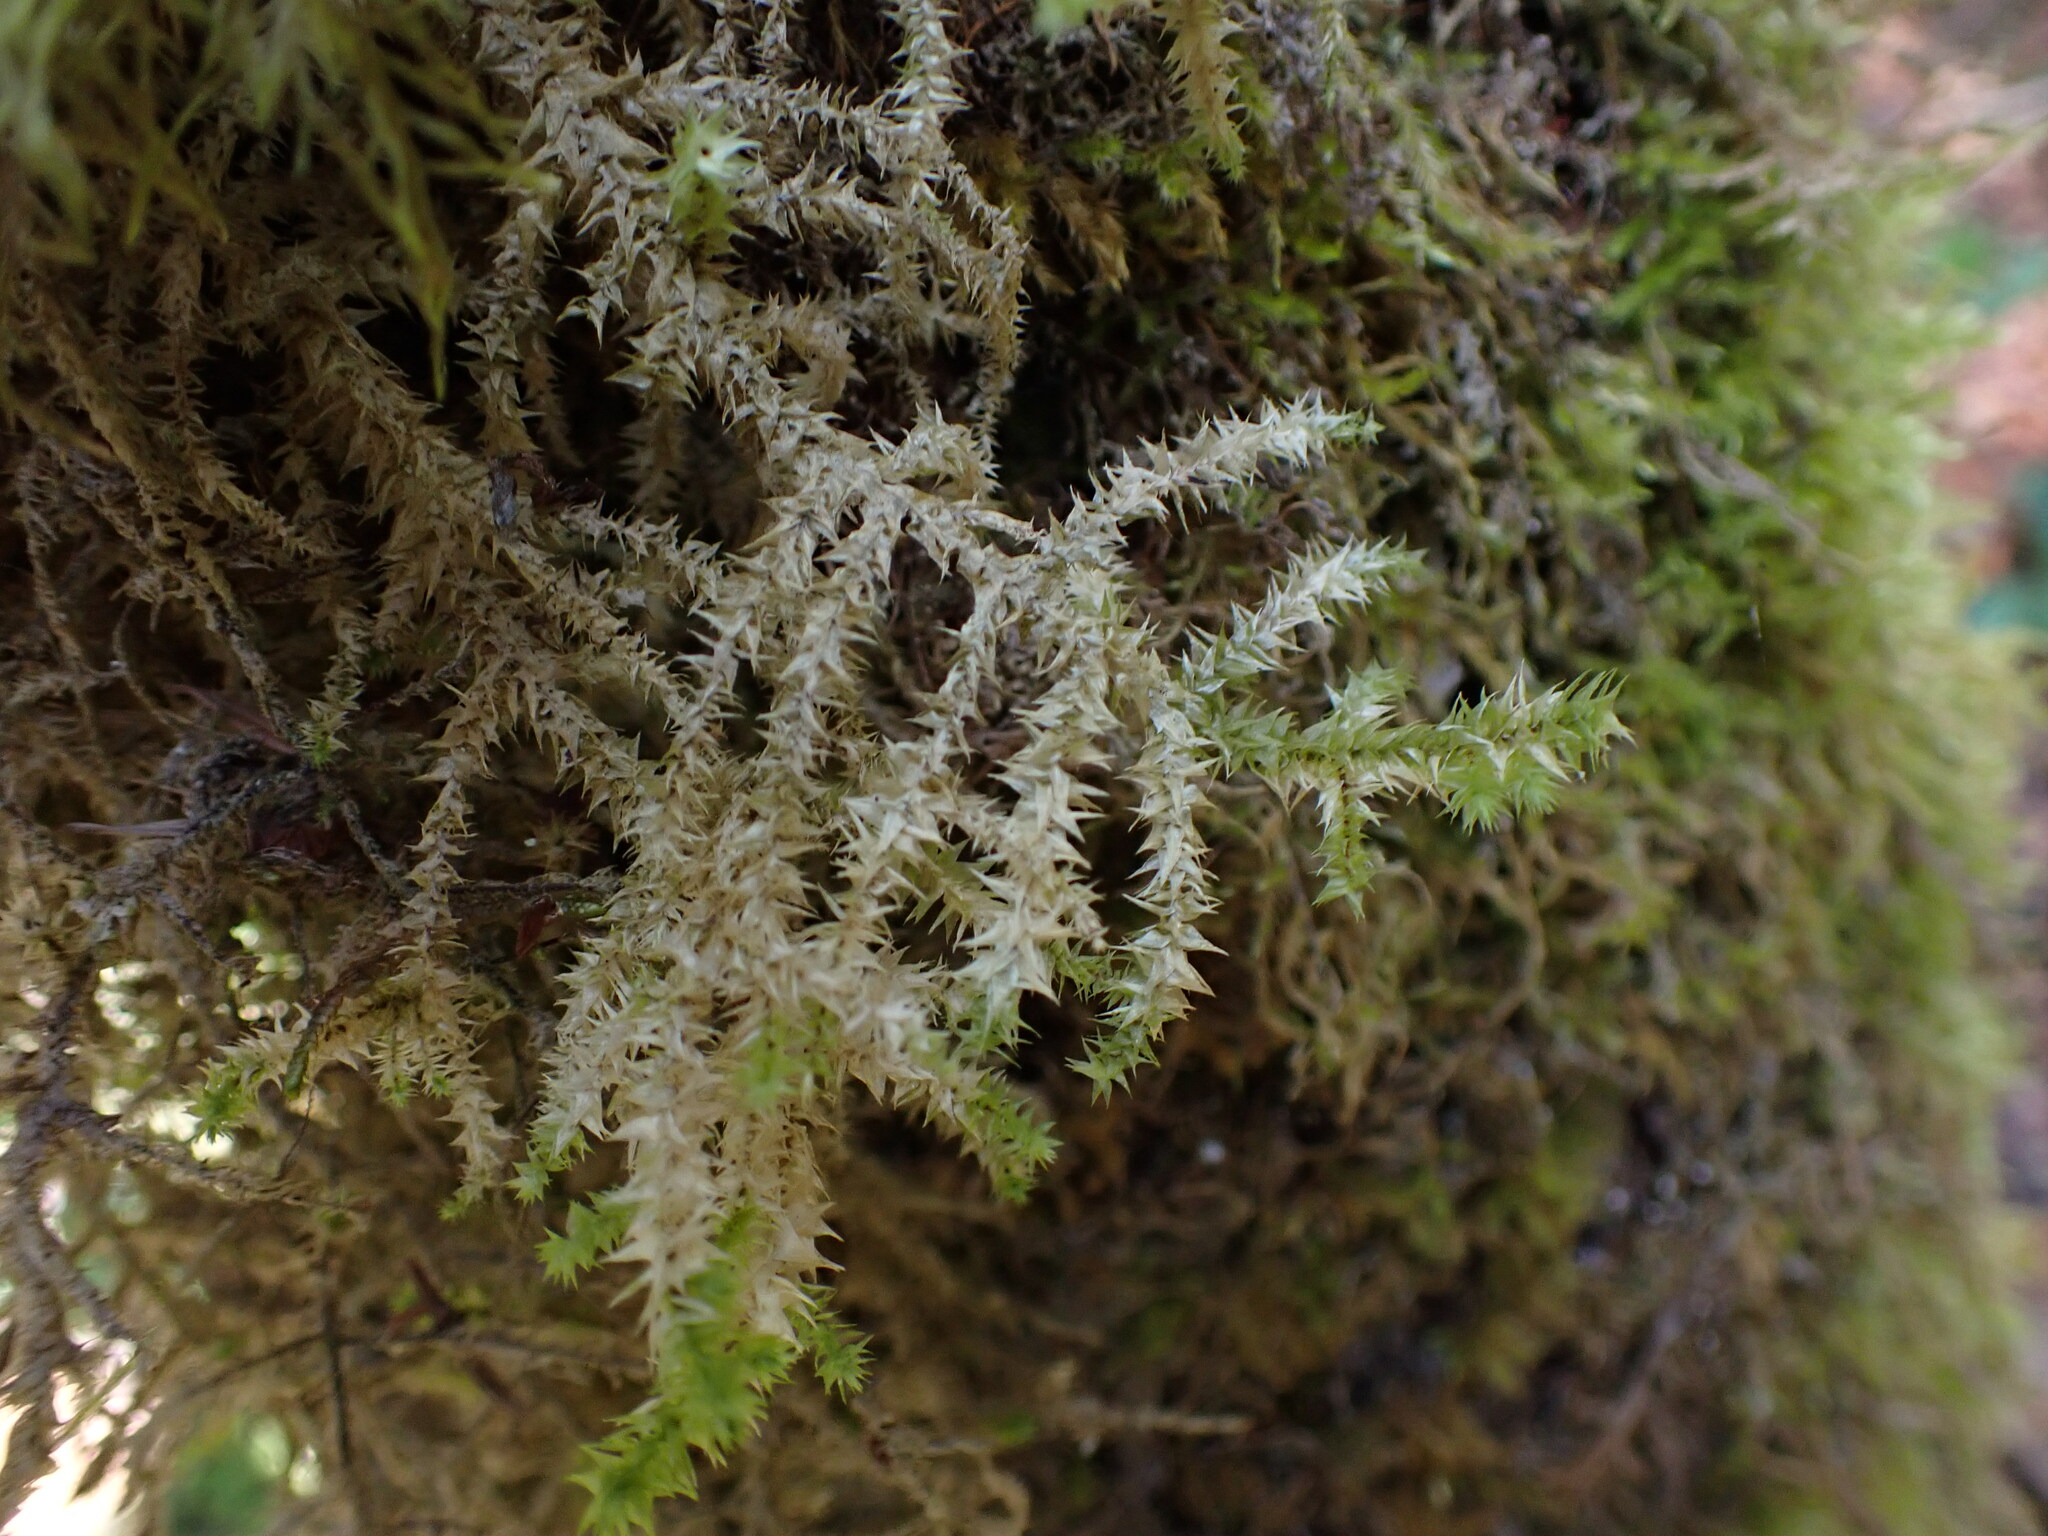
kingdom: Plantae
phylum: Bryophyta
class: Bryopsida
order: Hypnales
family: Hylocomiaceae
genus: Hylocomiadelphus
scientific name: Hylocomiadelphus triquetrus
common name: Rough goose neck moss
